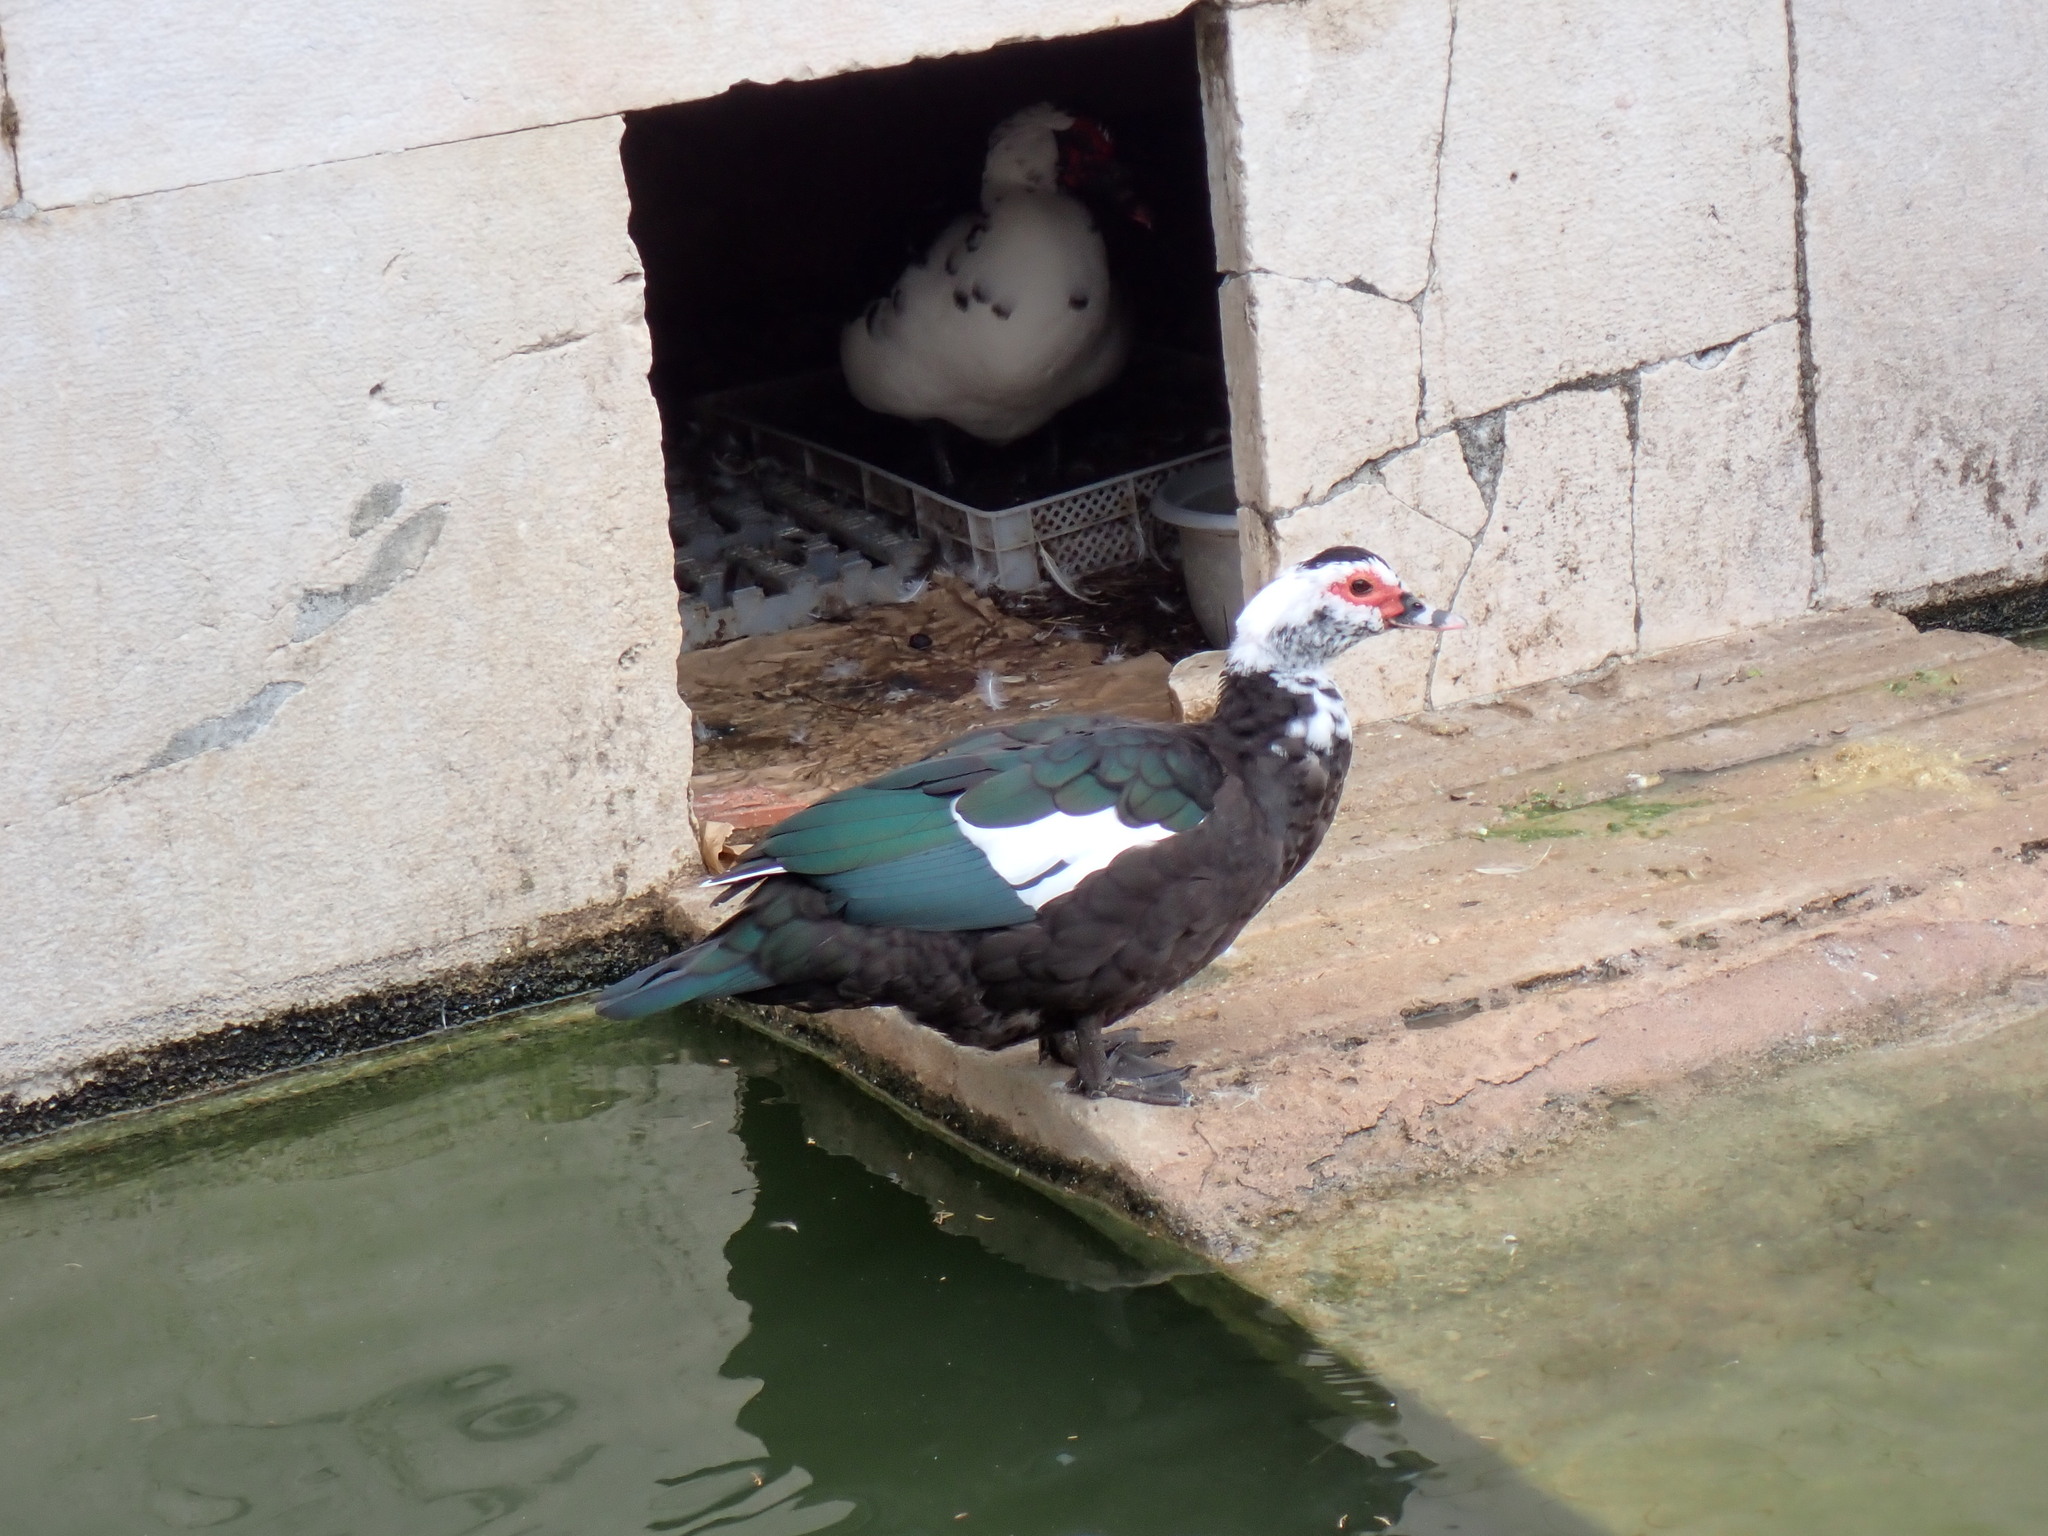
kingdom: Animalia
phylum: Chordata
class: Aves
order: Anseriformes
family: Anatidae
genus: Cairina
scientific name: Cairina moschata
